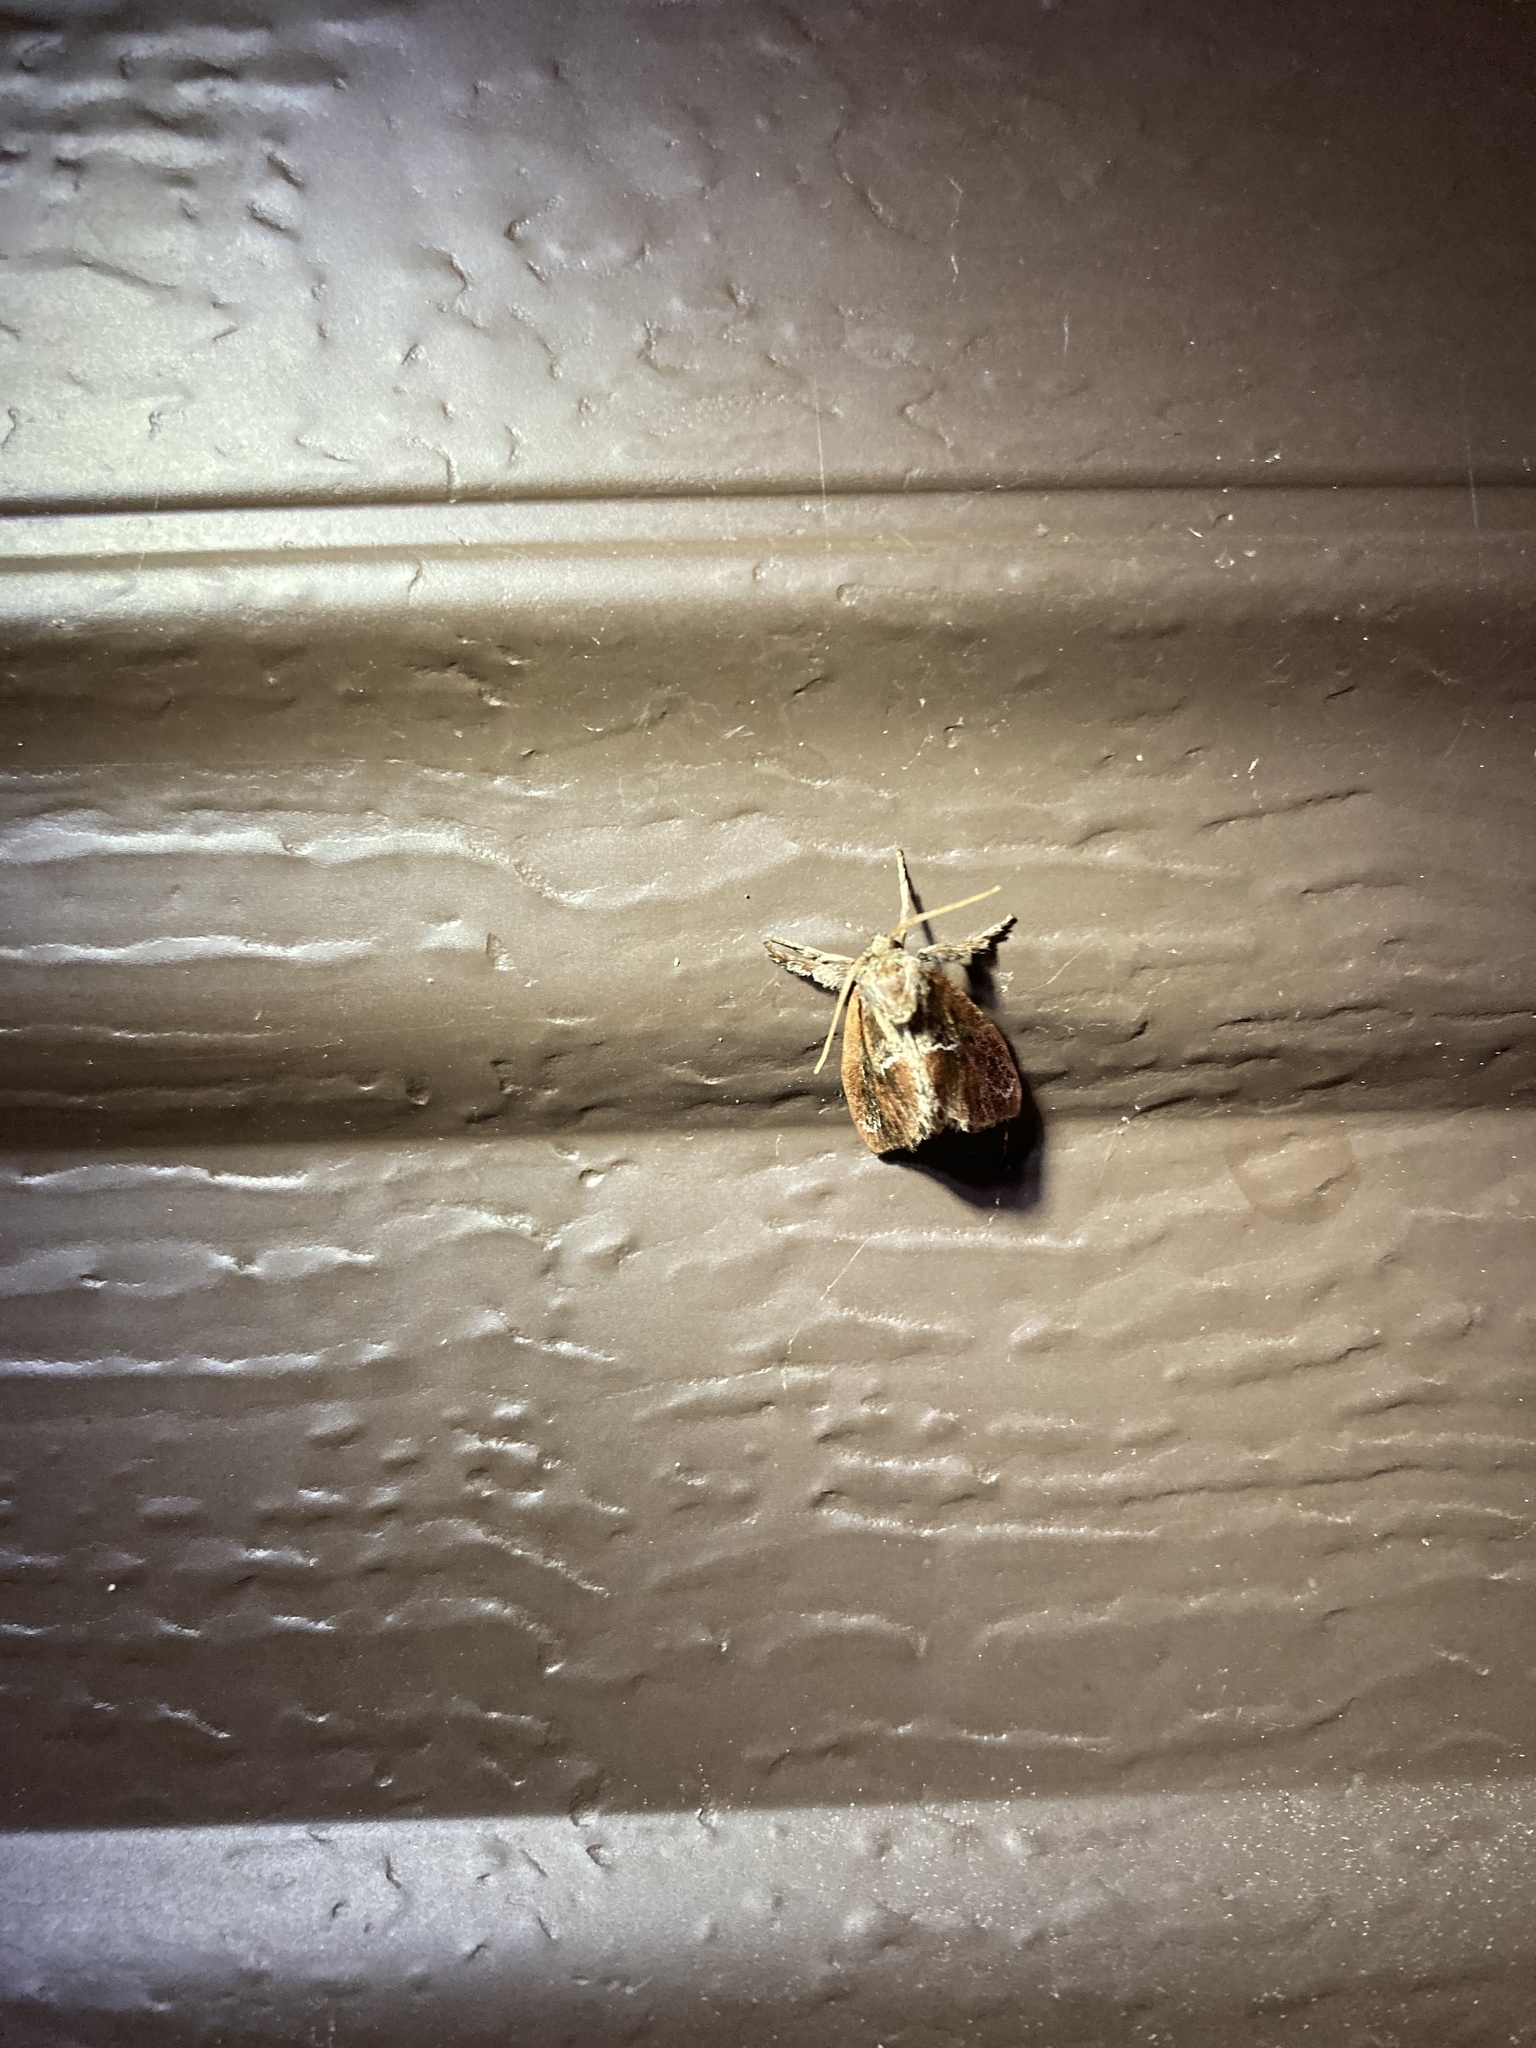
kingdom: Animalia
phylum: Arthropoda
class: Insecta
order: Lepidoptera
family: Limacodidae
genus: Adoneta
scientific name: Adoneta spinuloides
